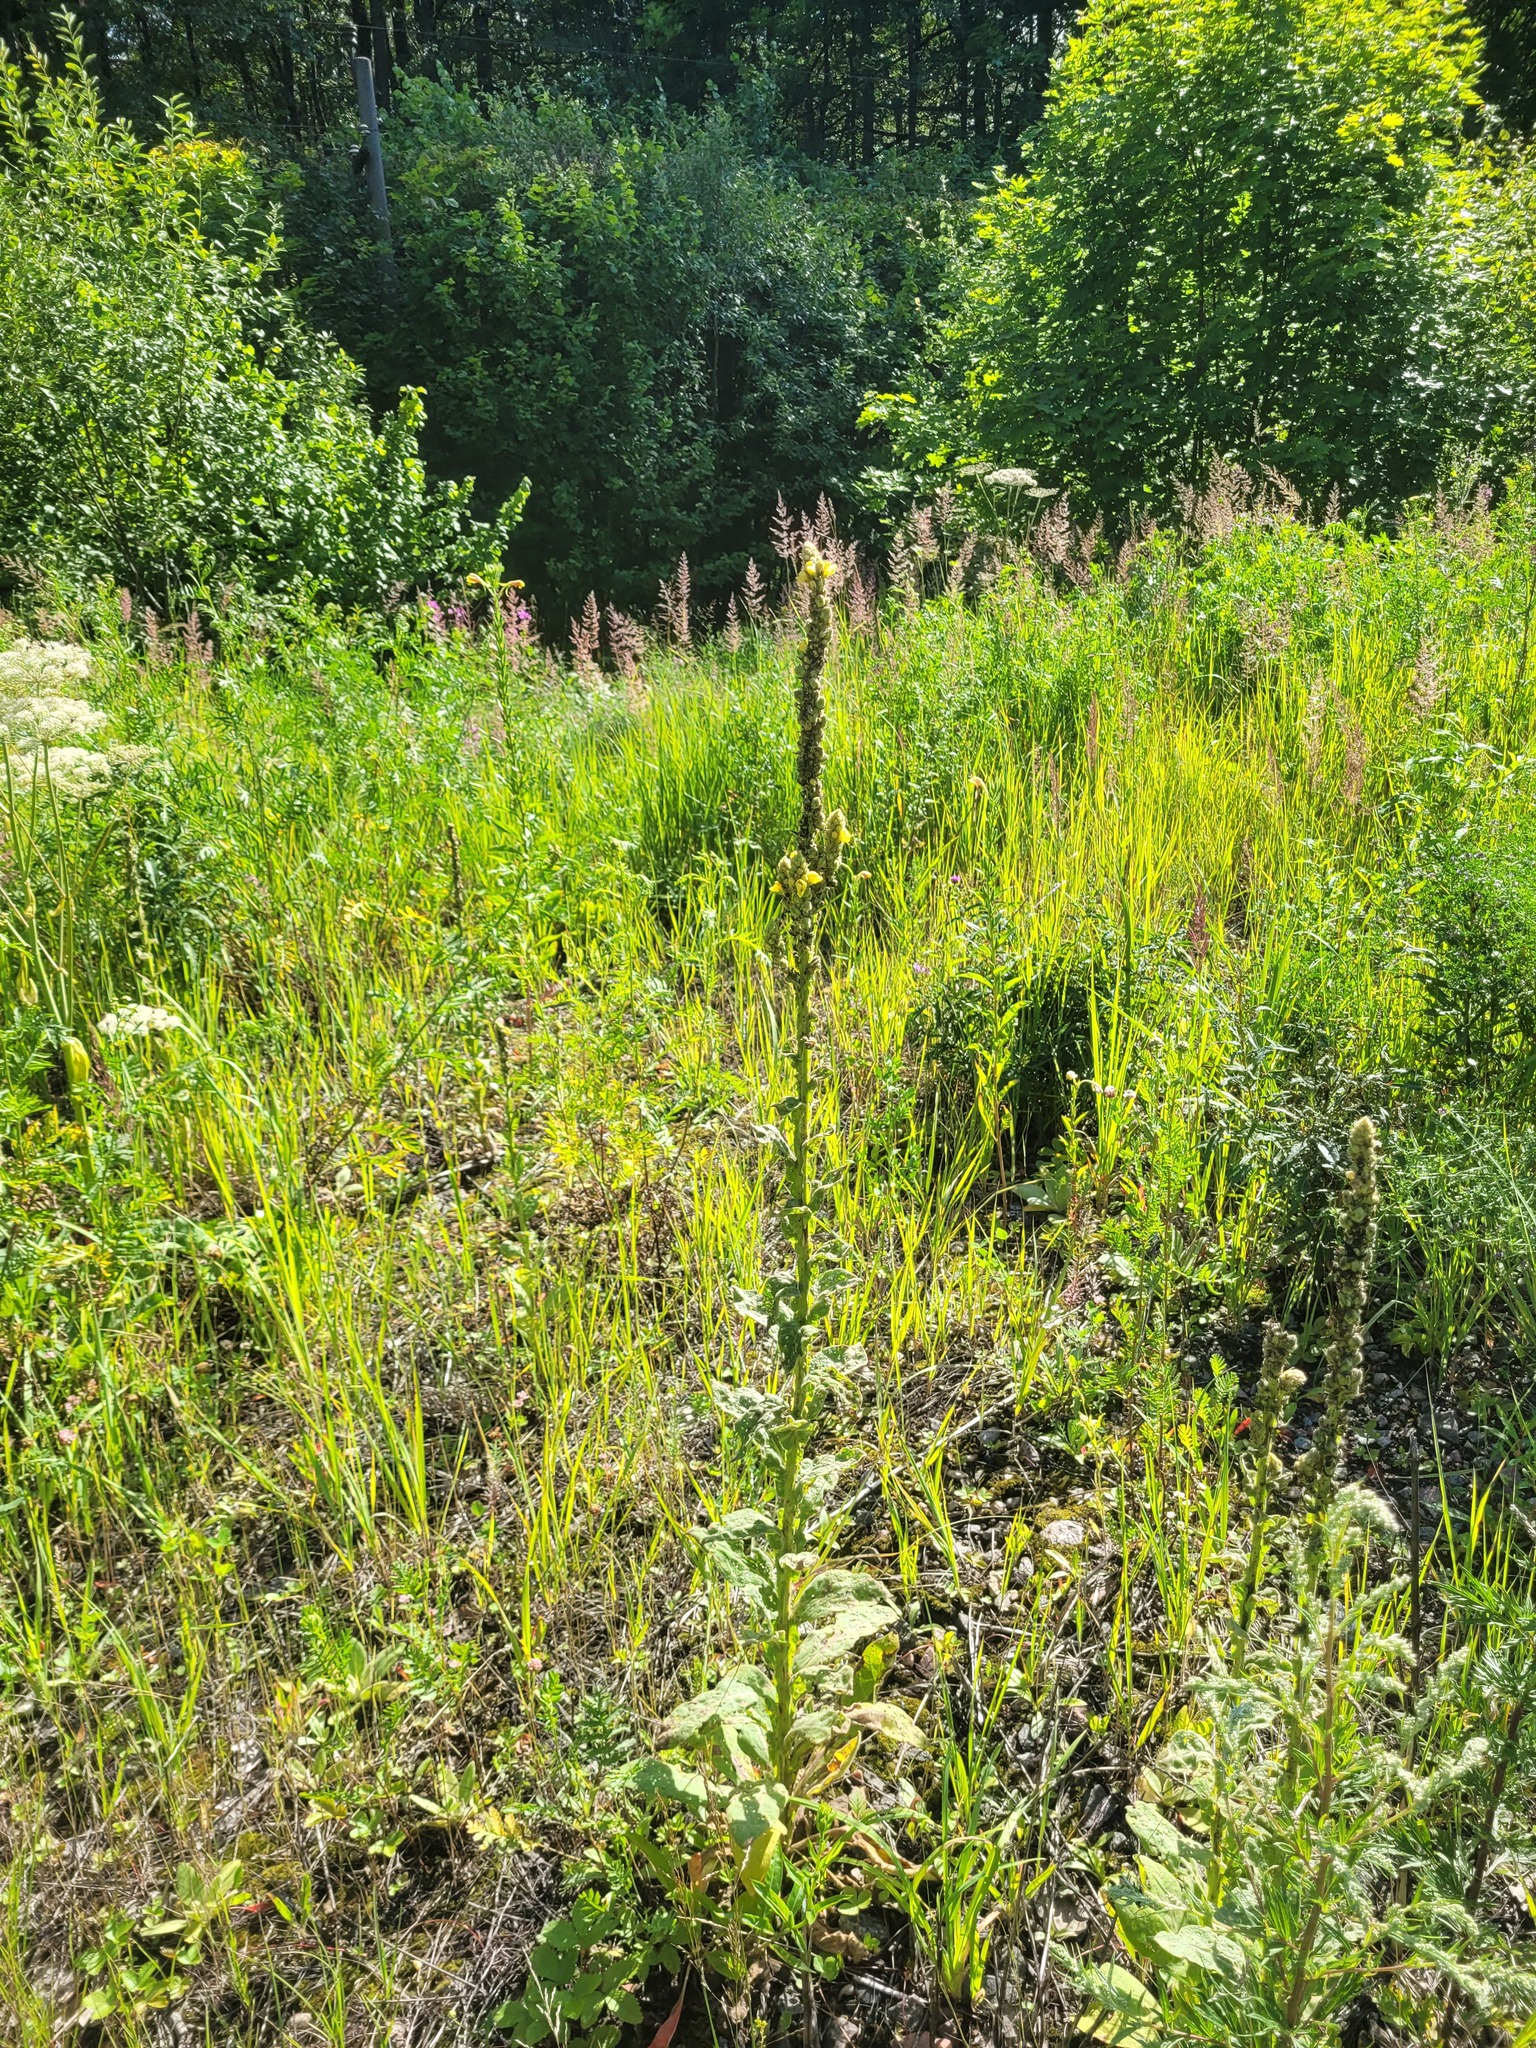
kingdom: Plantae
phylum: Tracheophyta
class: Magnoliopsida
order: Lamiales
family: Scrophulariaceae
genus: Verbascum
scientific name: Verbascum thapsus
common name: Common mullein
